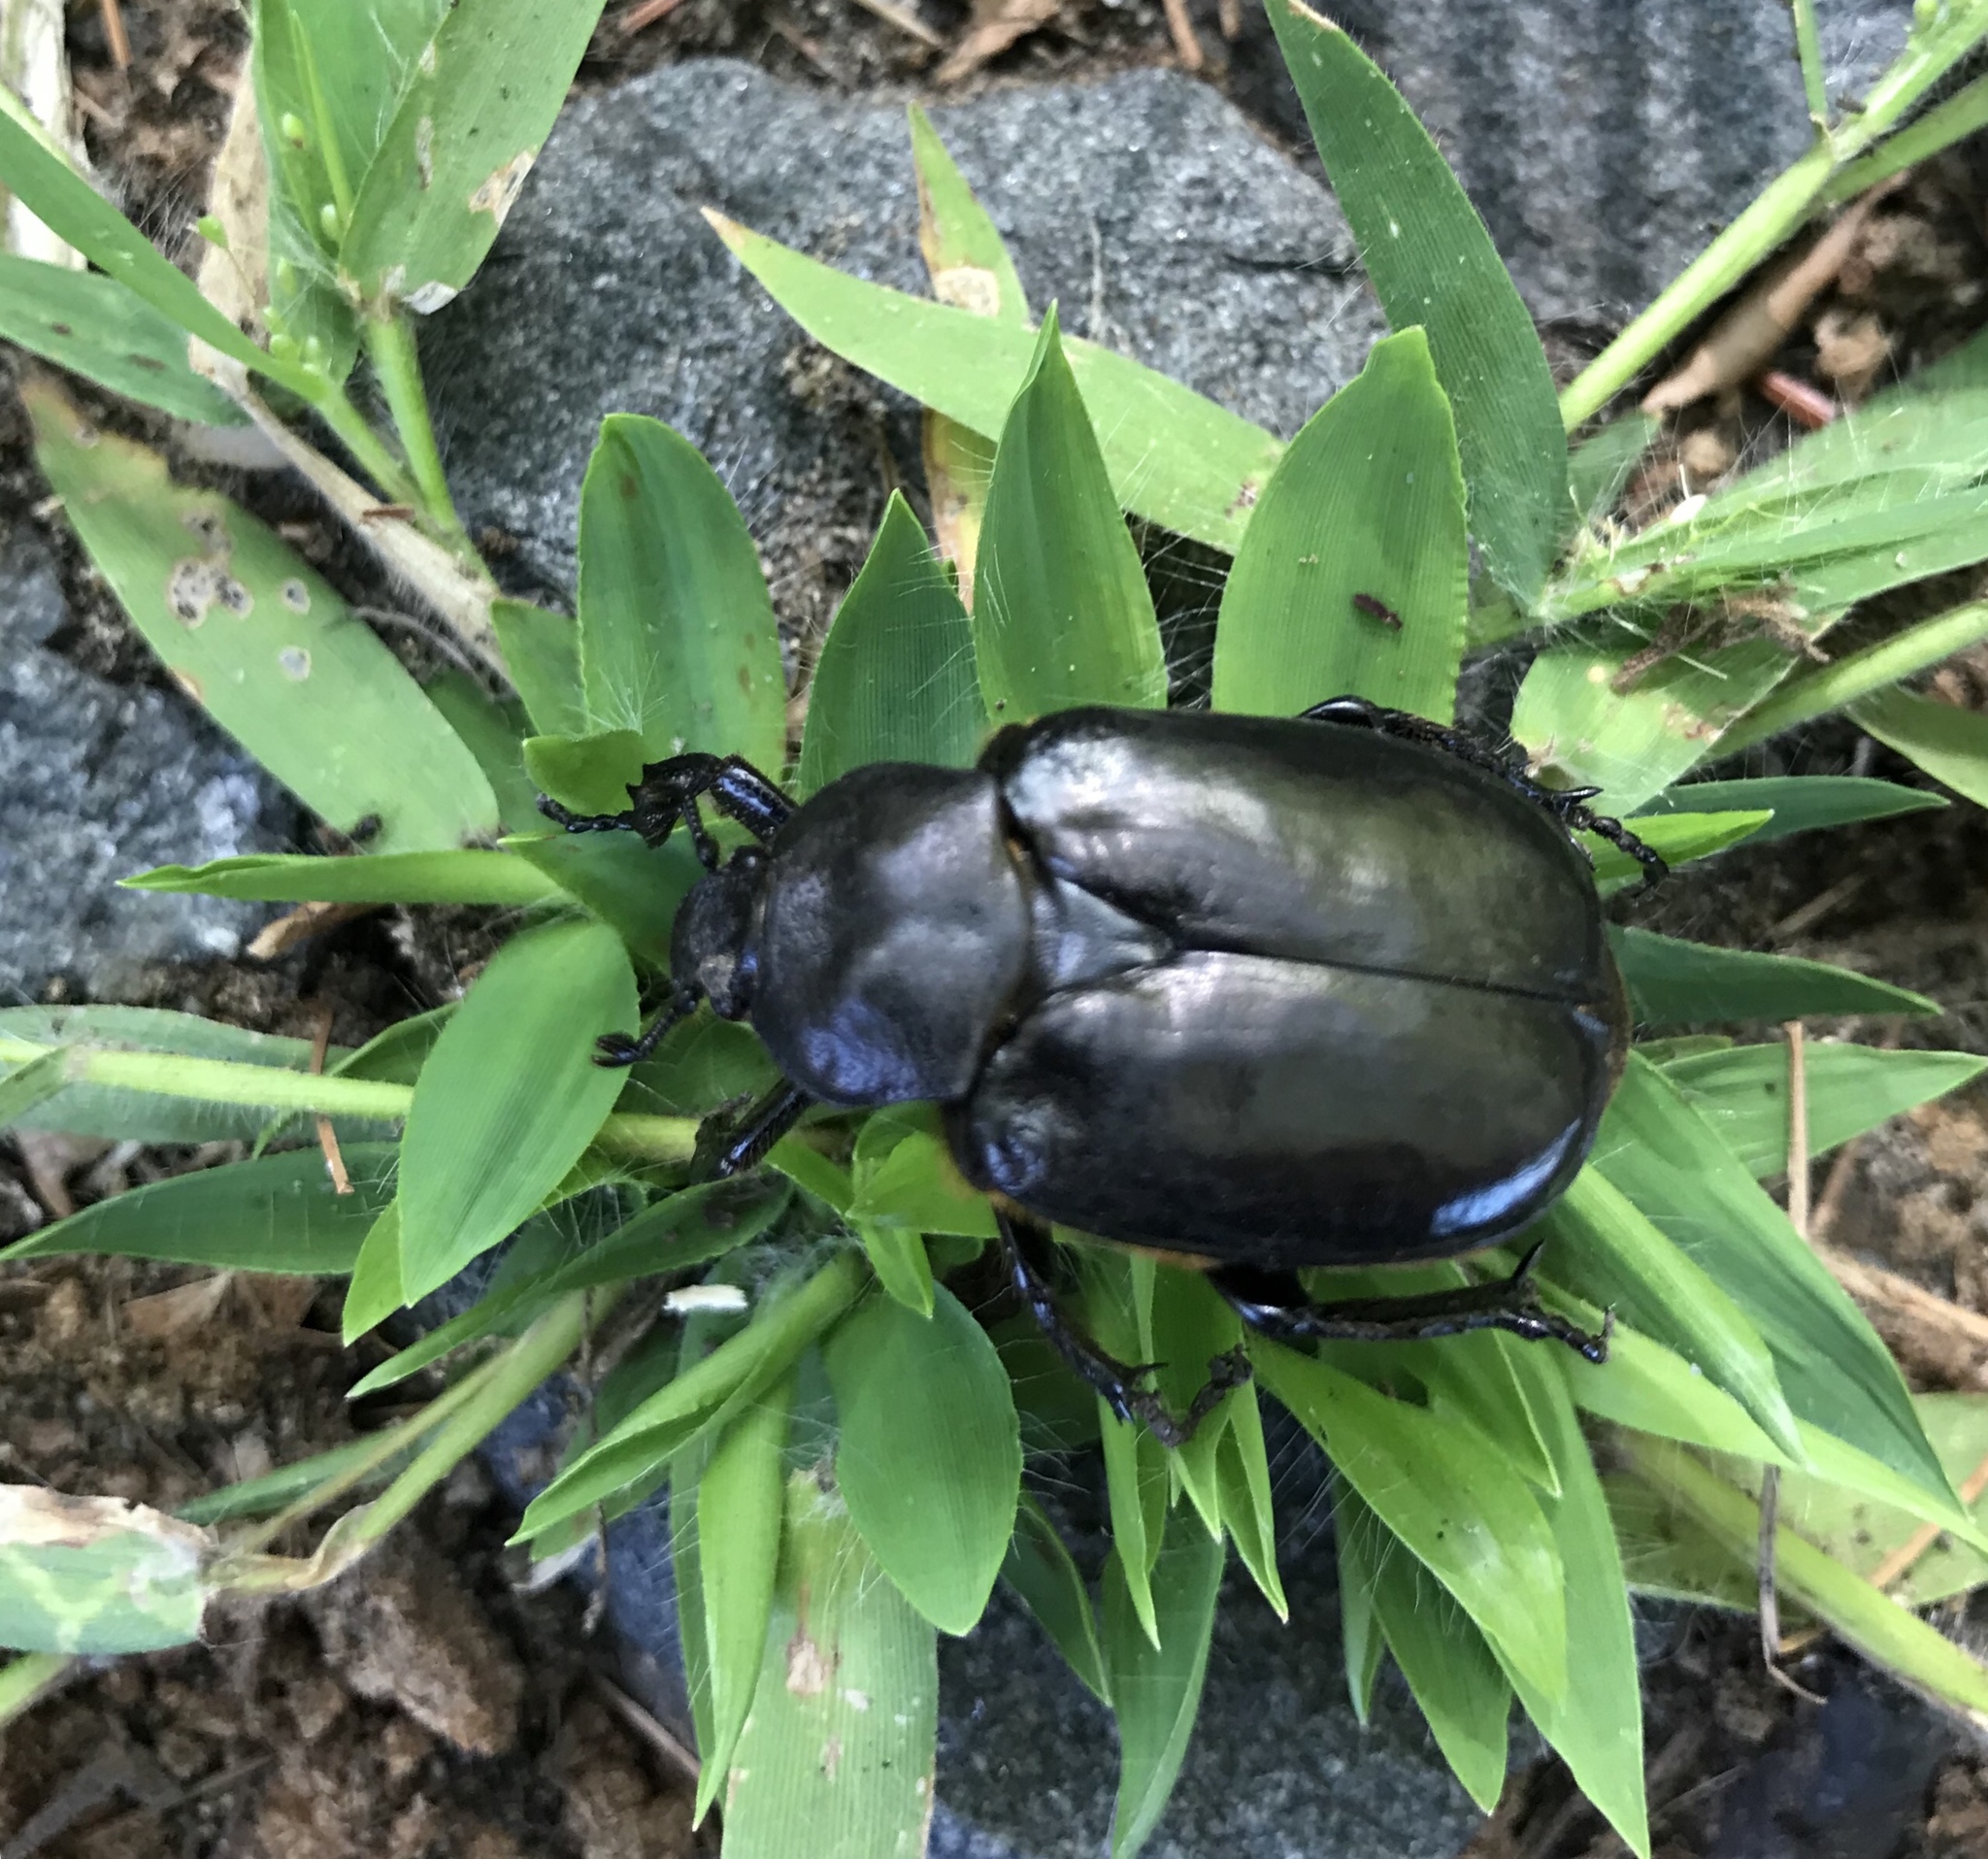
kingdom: Animalia
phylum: Arthropoda
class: Insecta
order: Coleoptera
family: Scarabaeidae
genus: Osmoderma
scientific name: Osmoderma eremicola
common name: Hermit flower beetle
